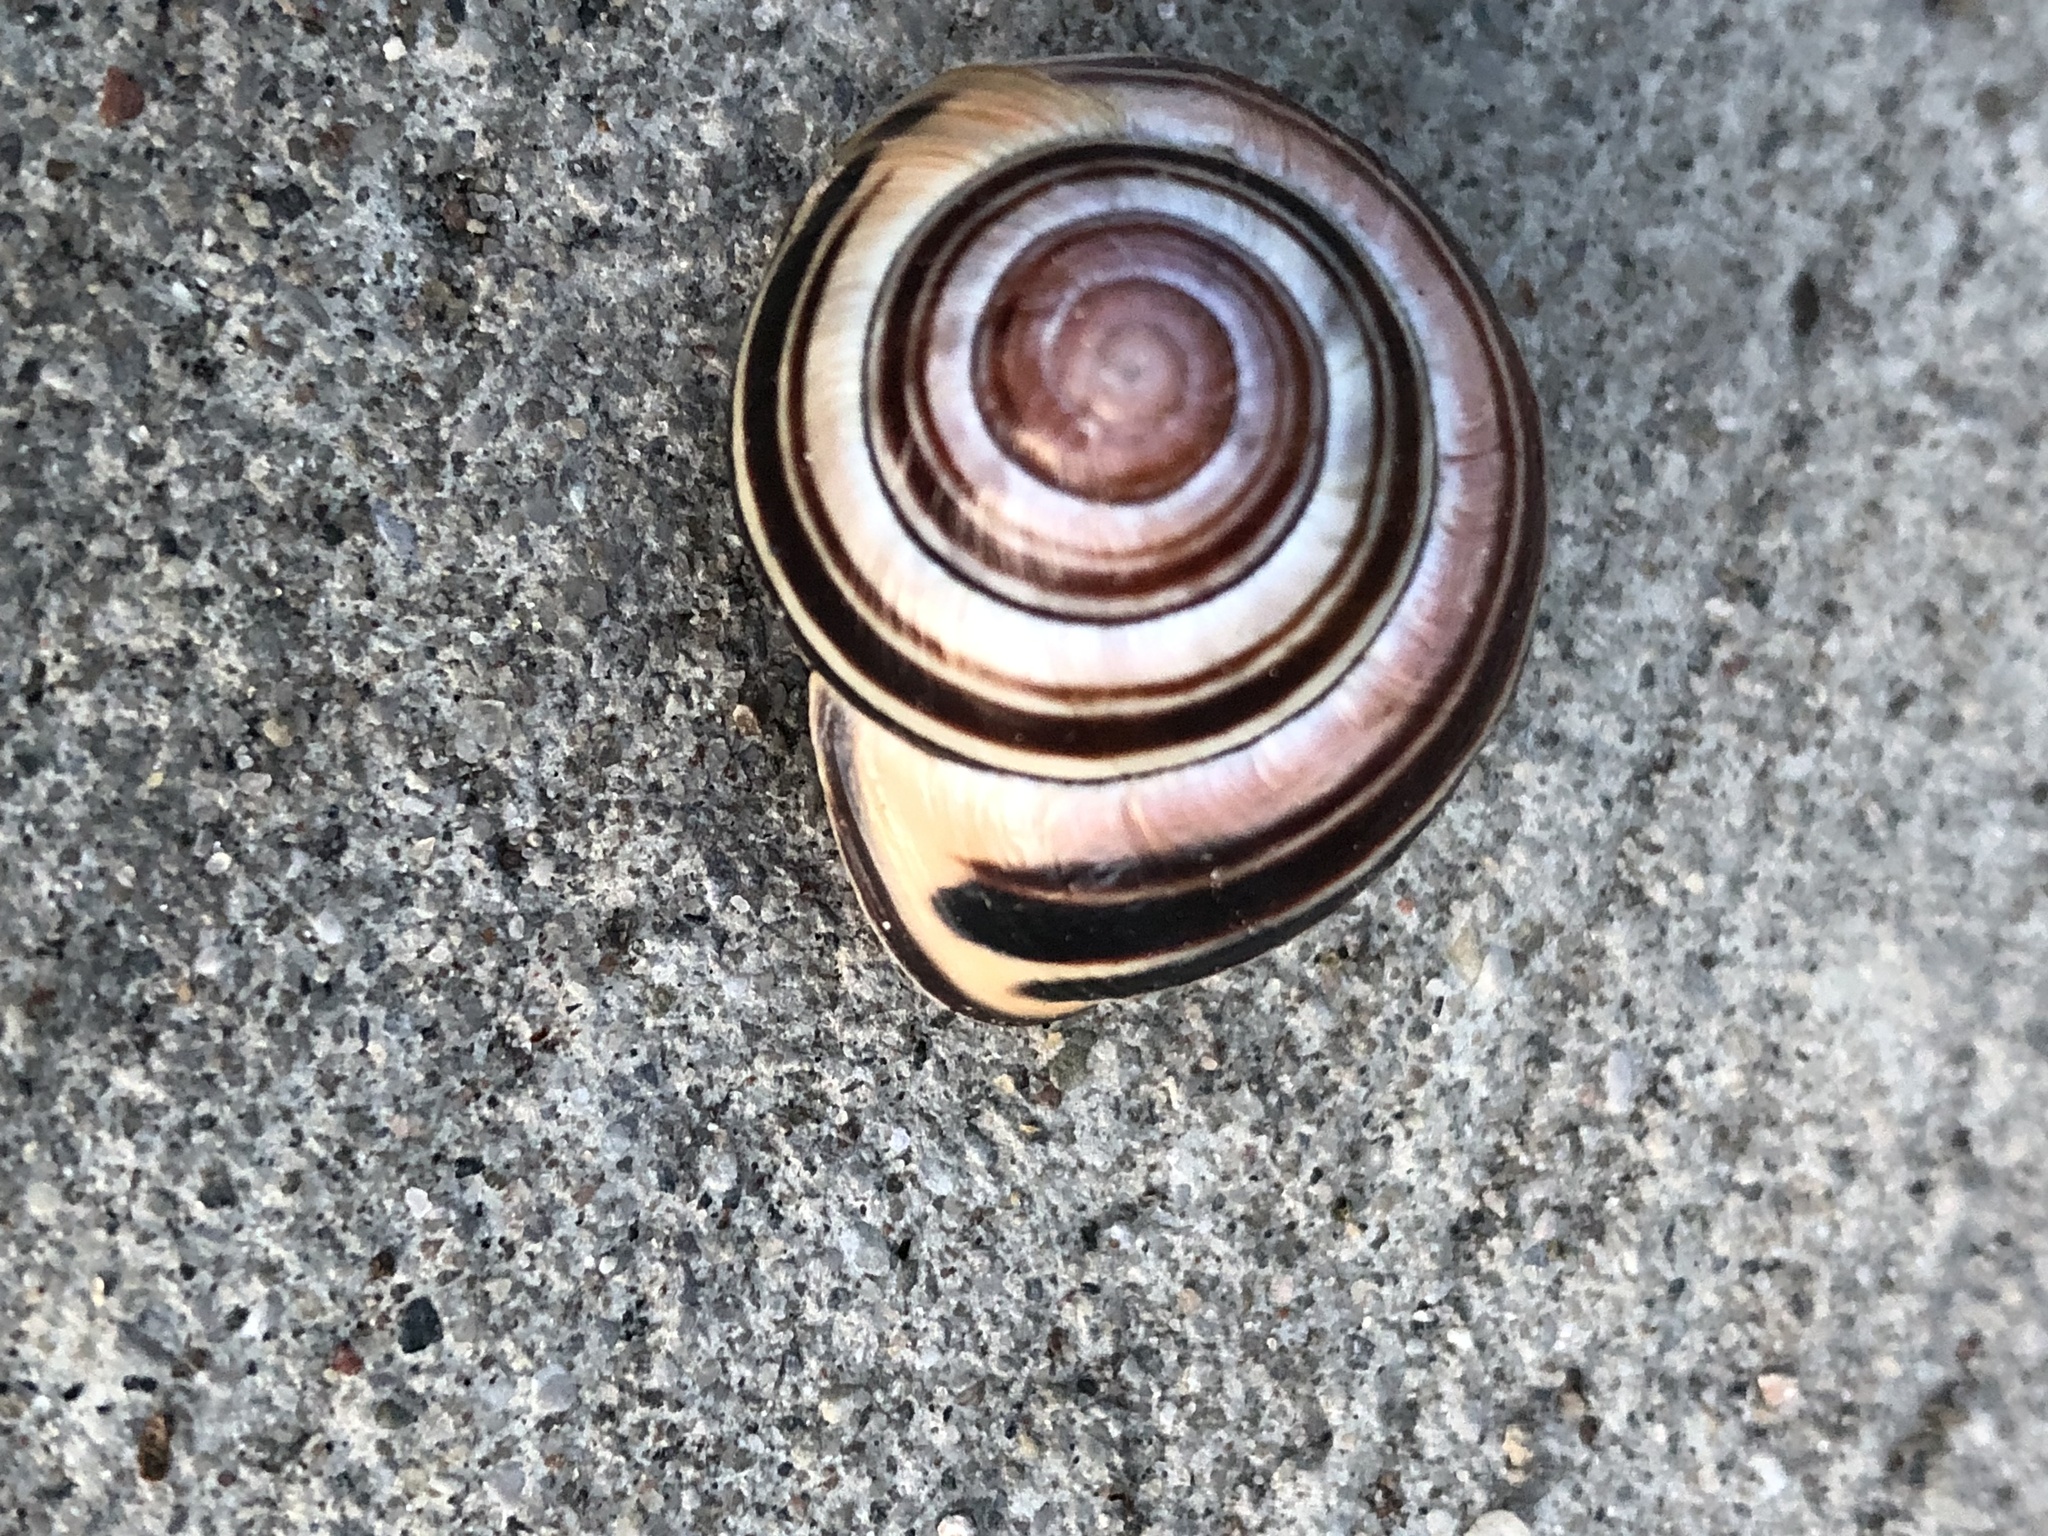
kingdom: Animalia
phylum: Mollusca
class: Gastropoda
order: Stylommatophora
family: Helicidae
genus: Cepaea
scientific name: Cepaea nemoralis
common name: Grovesnail
